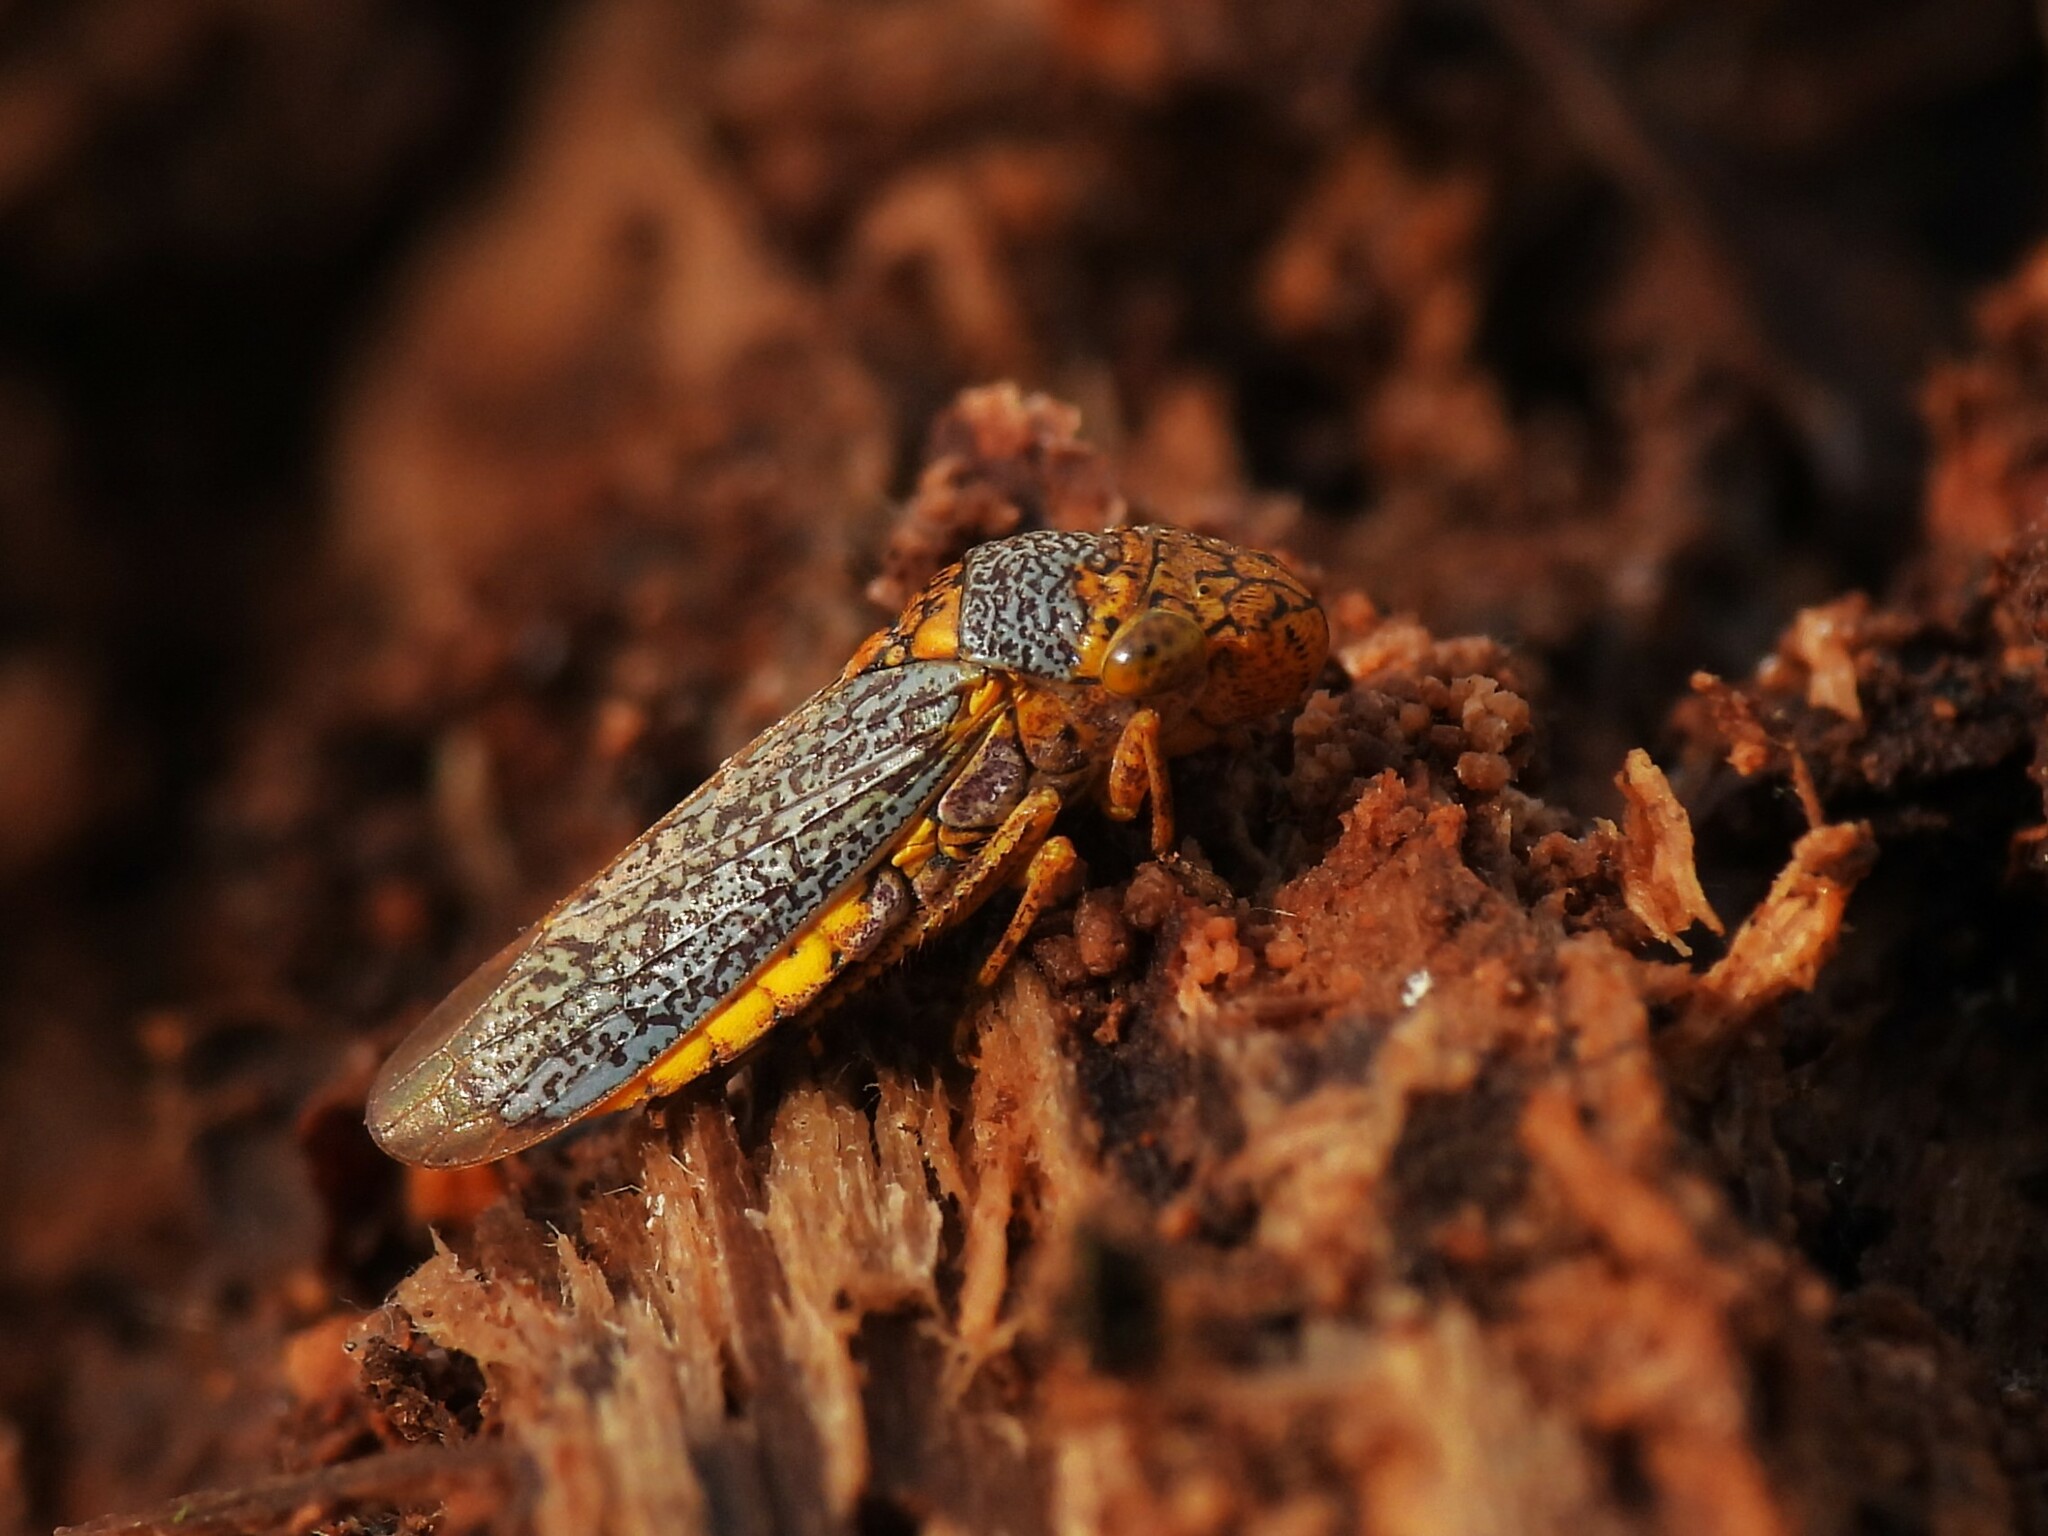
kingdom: Animalia
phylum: Arthropoda
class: Insecta
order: Hemiptera
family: Cicadellidae
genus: Oncometopia
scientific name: Oncometopia orbona
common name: Broad-headed sharpshooter
